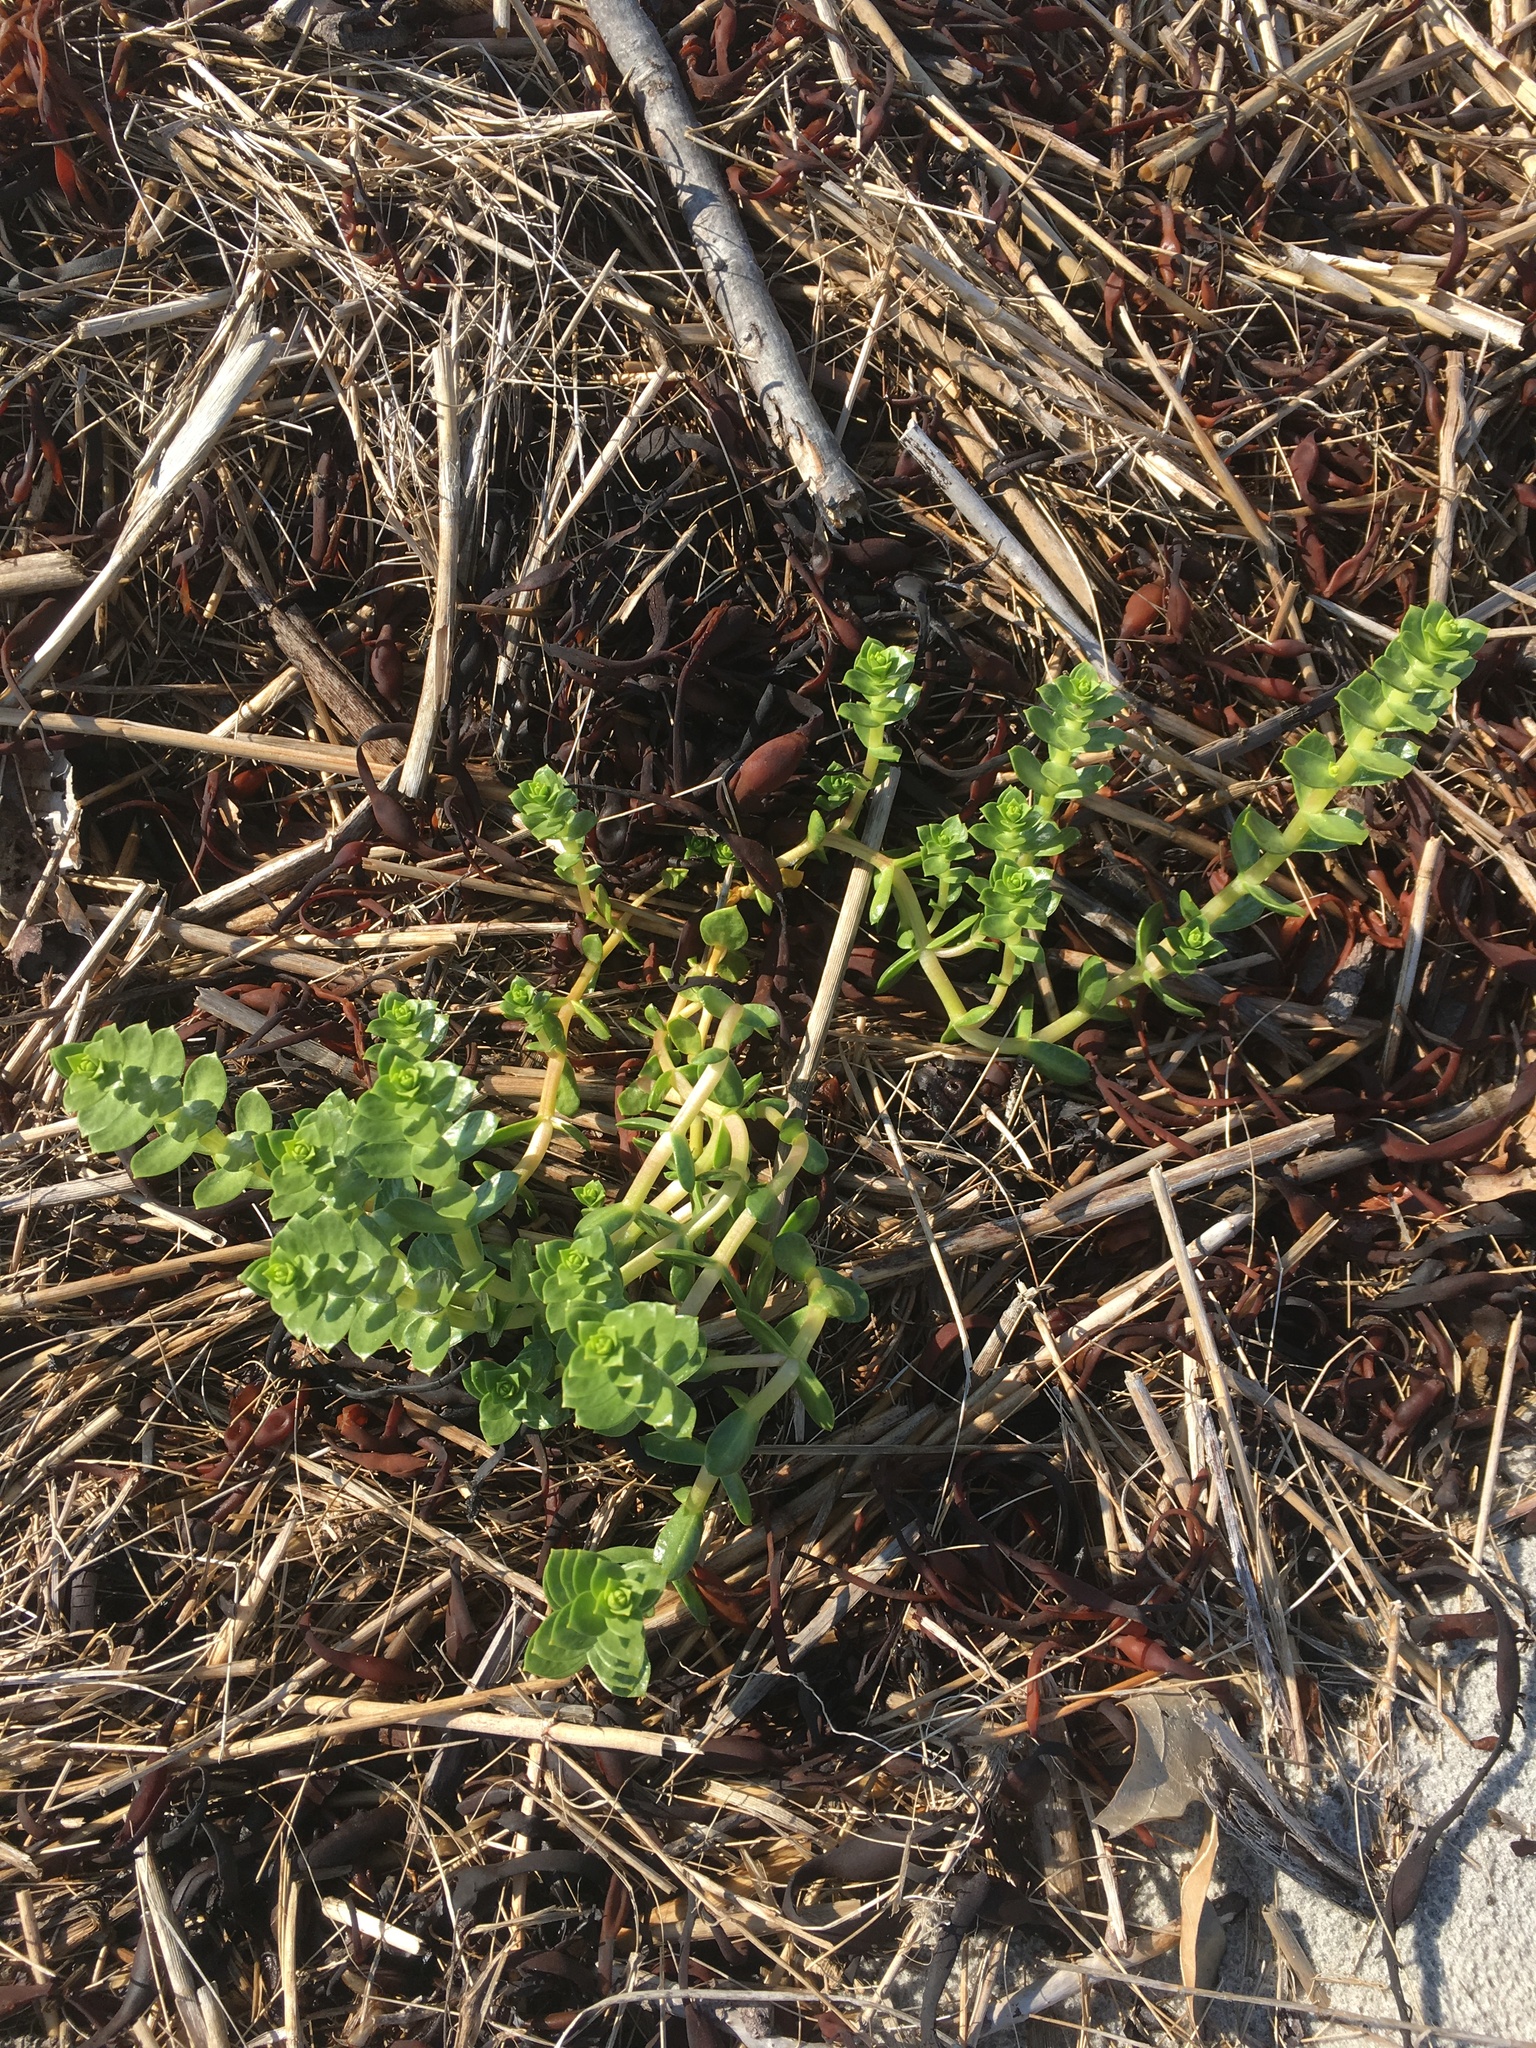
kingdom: Plantae
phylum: Tracheophyta
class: Magnoliopsida
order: Caryophyllales
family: Caryophyllaceae
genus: Honckenya
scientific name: Honckenya peploides
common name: Sea sandwort
